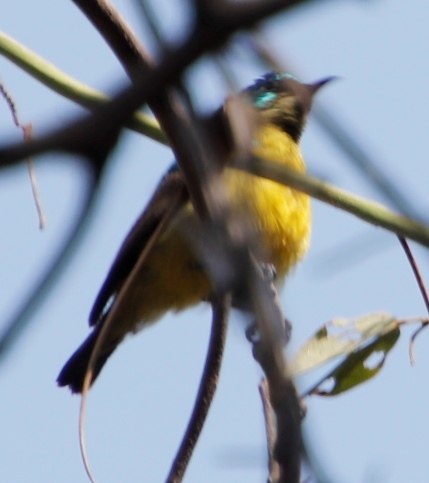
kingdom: Animalia
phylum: Chordata
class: Aves
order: Passeriformes
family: Nectariniidae
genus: Hedydipna
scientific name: Hedydipna collaris
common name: Collared sunbird
